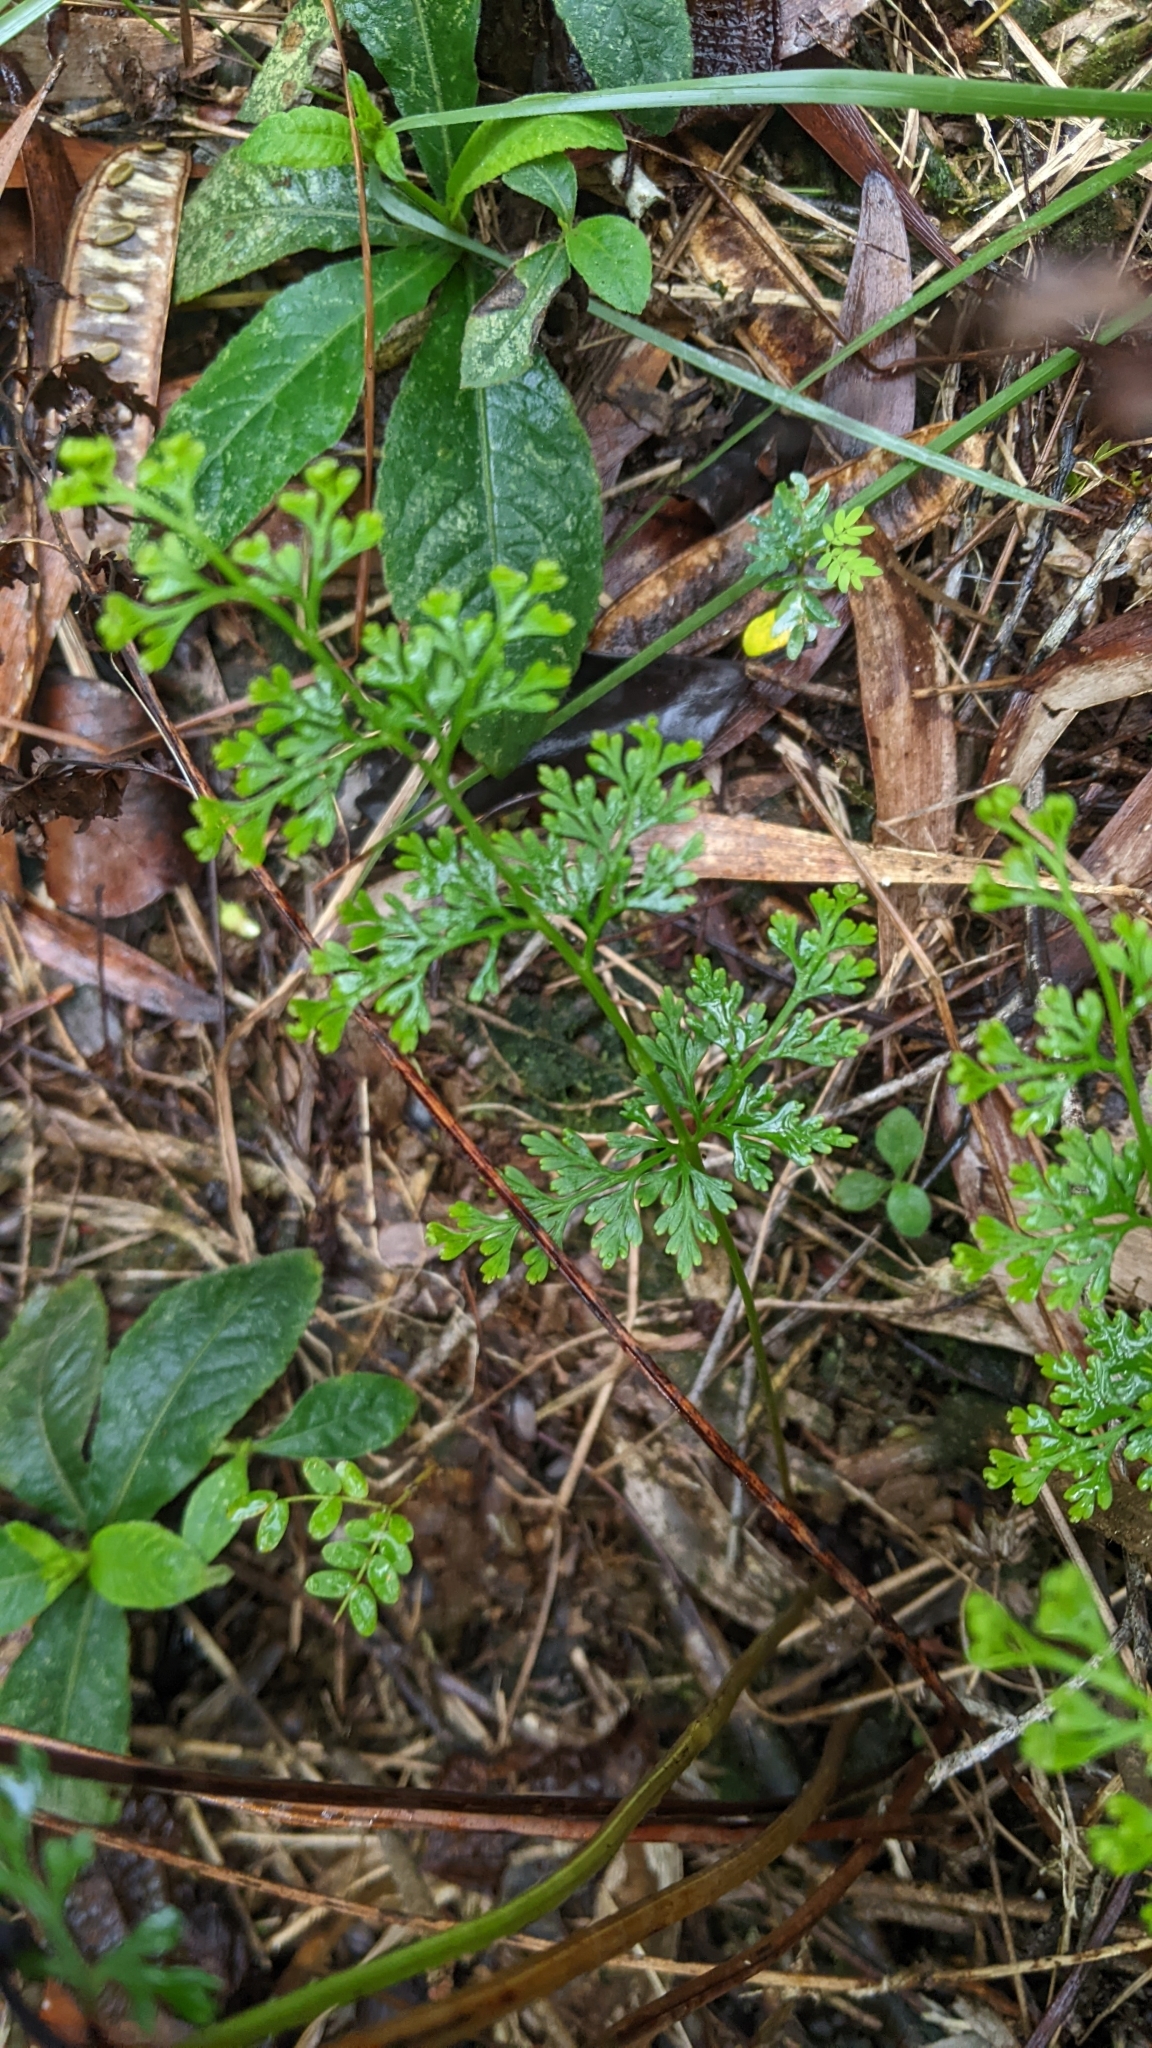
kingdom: Plantae
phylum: Tracheophyta
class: Polypodiopsida
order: Polypodiales
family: Lindsaeaceae
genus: Odontosoria
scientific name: Odontosoria chinensis
